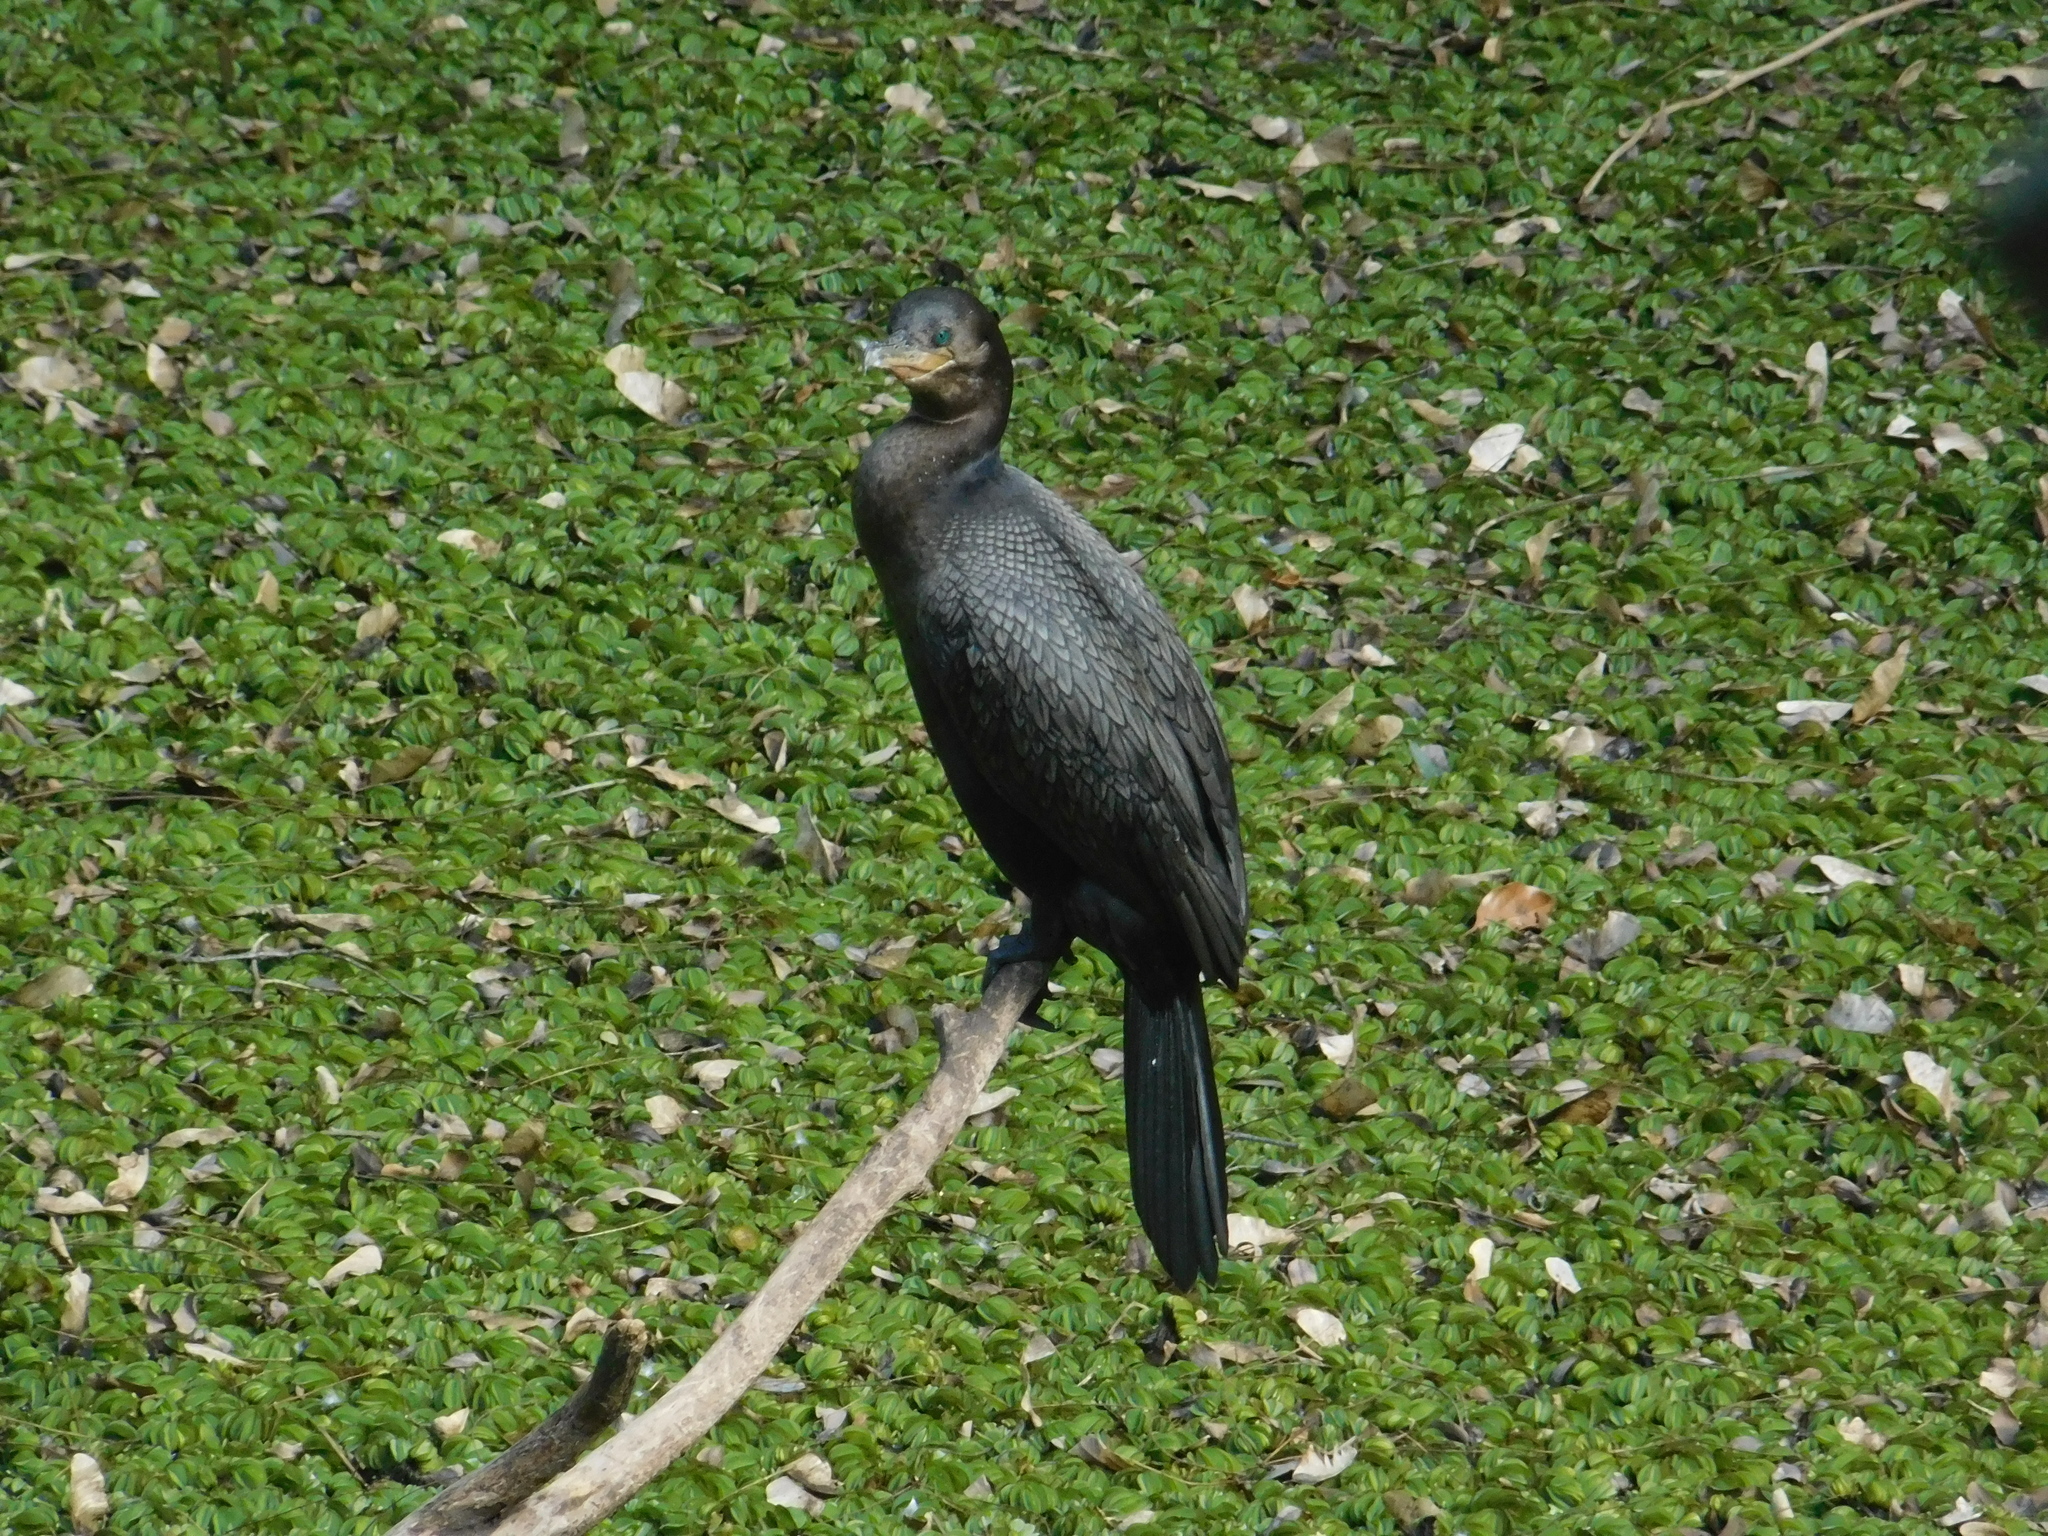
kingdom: Animalia
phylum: Chordata
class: Aves
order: Suliformes
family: Phalacrocoracidae
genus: Phalacrocorax
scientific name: Phalacrocorax brasilianus
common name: Neotropic cormorant
